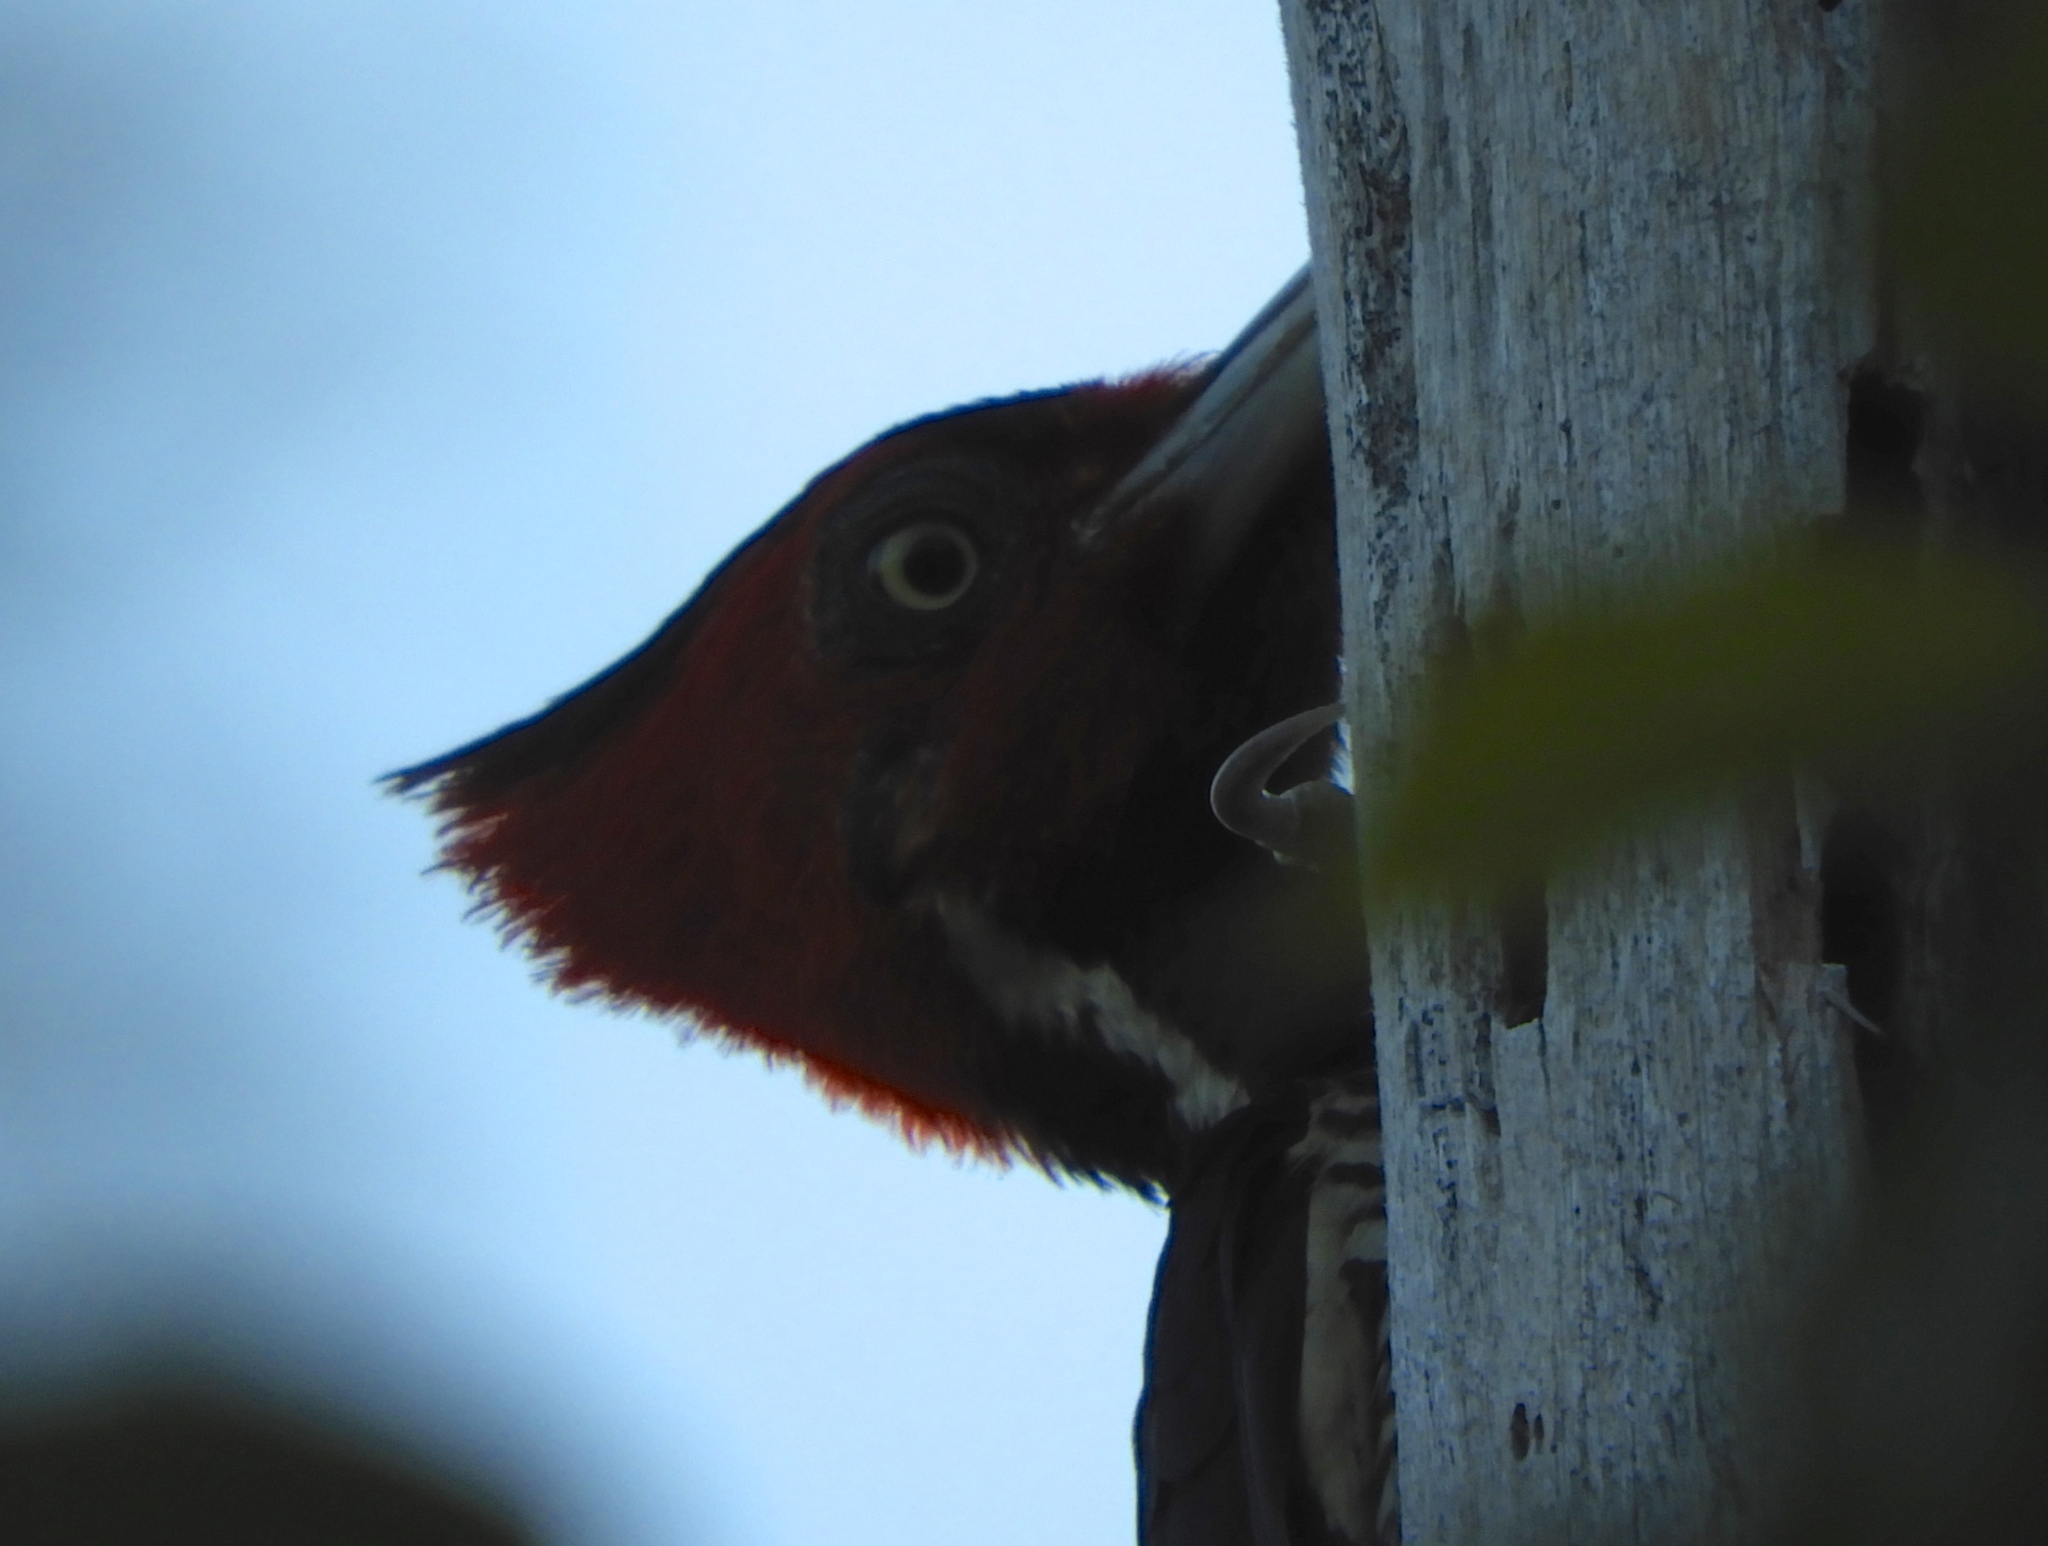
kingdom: Animalia
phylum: Chordata
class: Aves
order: Piciformes
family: Picidae
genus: Campephilus
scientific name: Campephilus guatemalensis
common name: Pale-billed woodpecker
